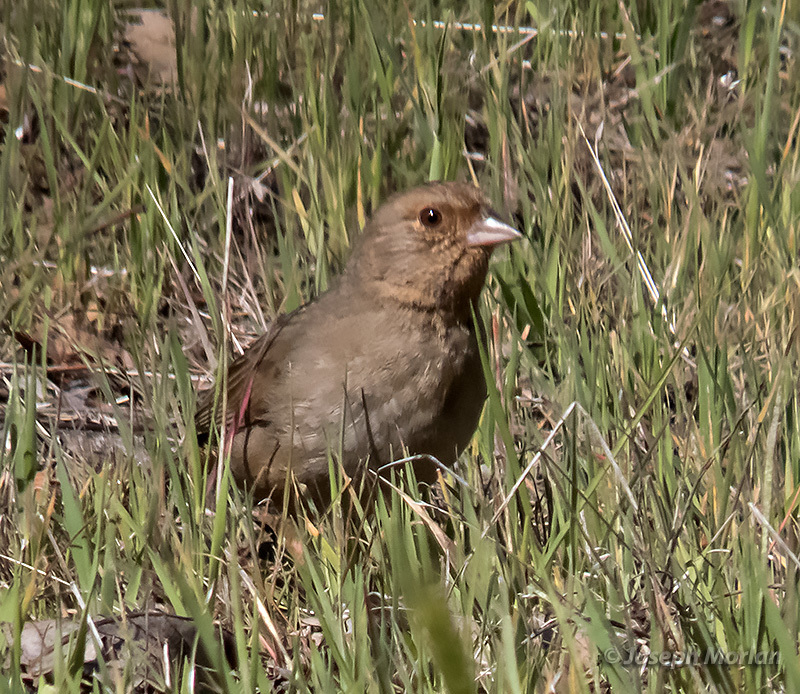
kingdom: Animalia
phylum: Chordata
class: Aves
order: Passeriformes
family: Passerellidae
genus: Melozone
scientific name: Melozone crissalis
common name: California towhee
